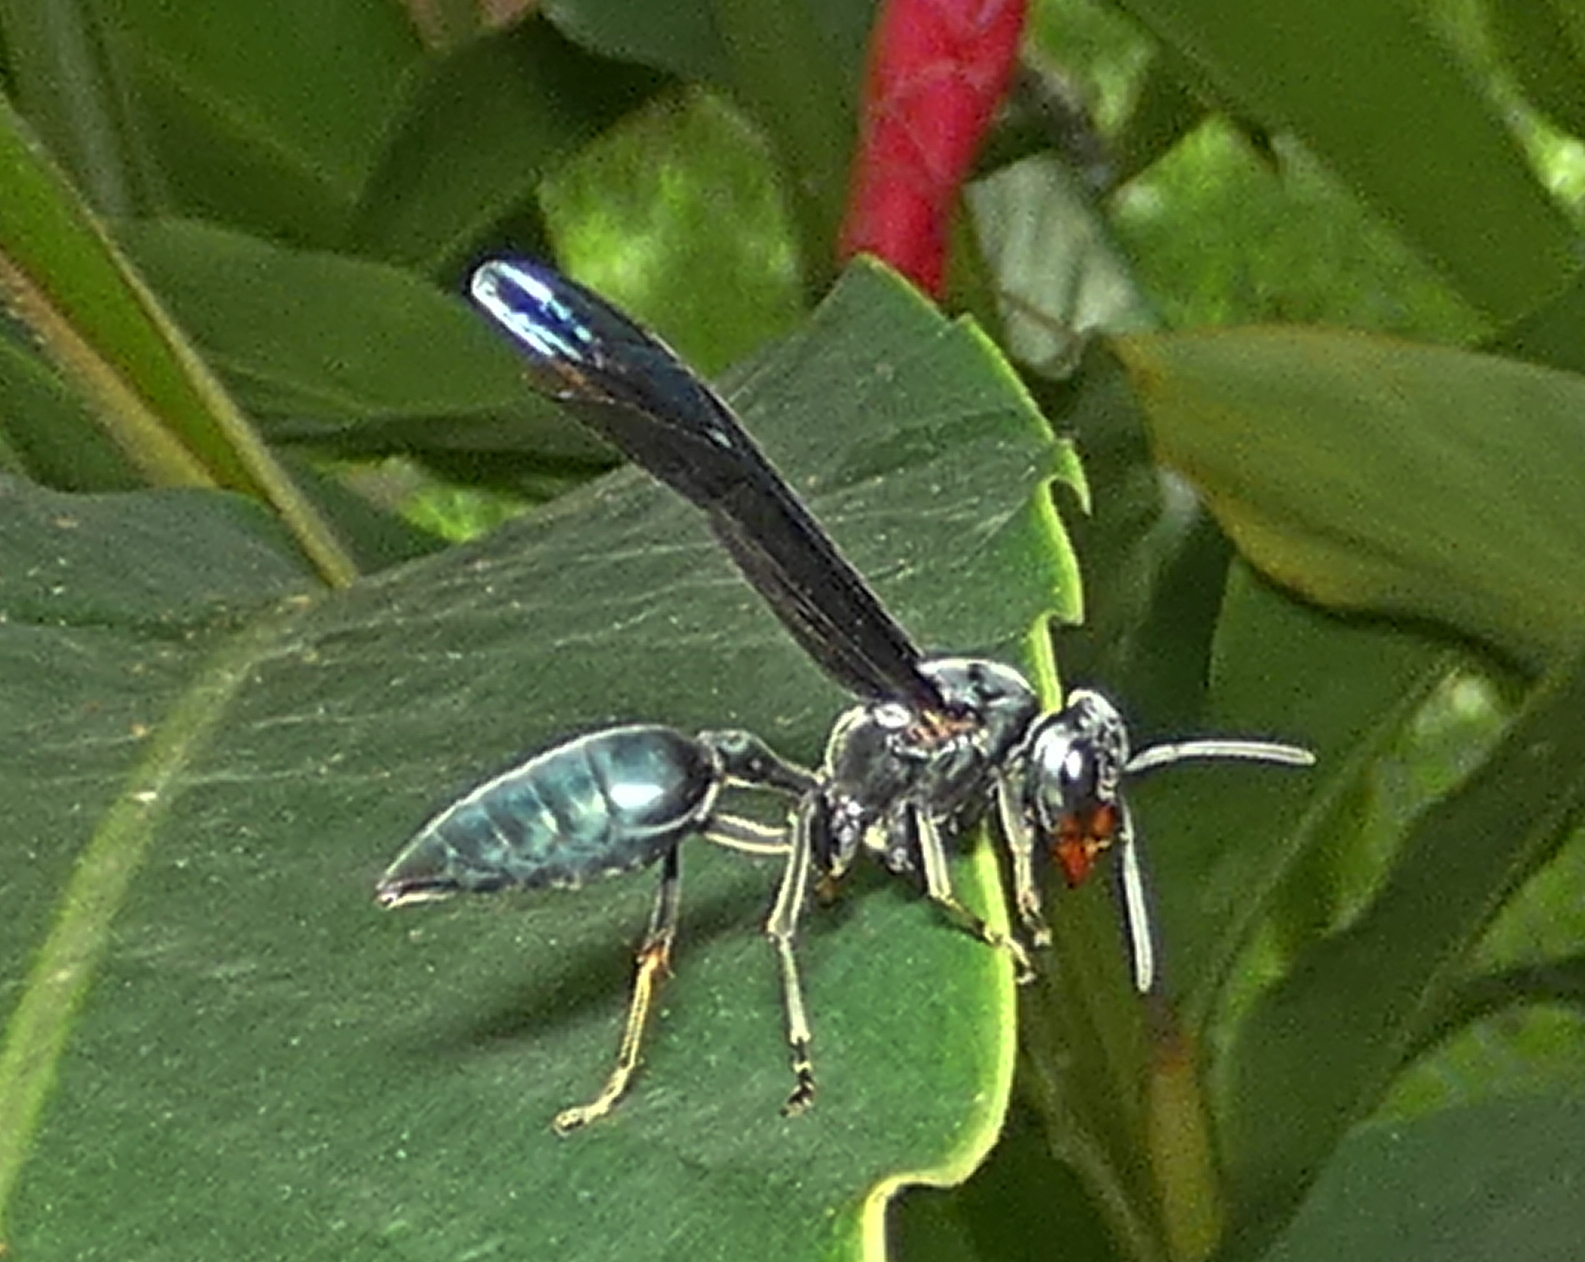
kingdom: Animalia
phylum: Arthropoda
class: Insecta
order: Hymenoptera
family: Vespidae
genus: Synoeca
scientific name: Synoeca ilheensis
